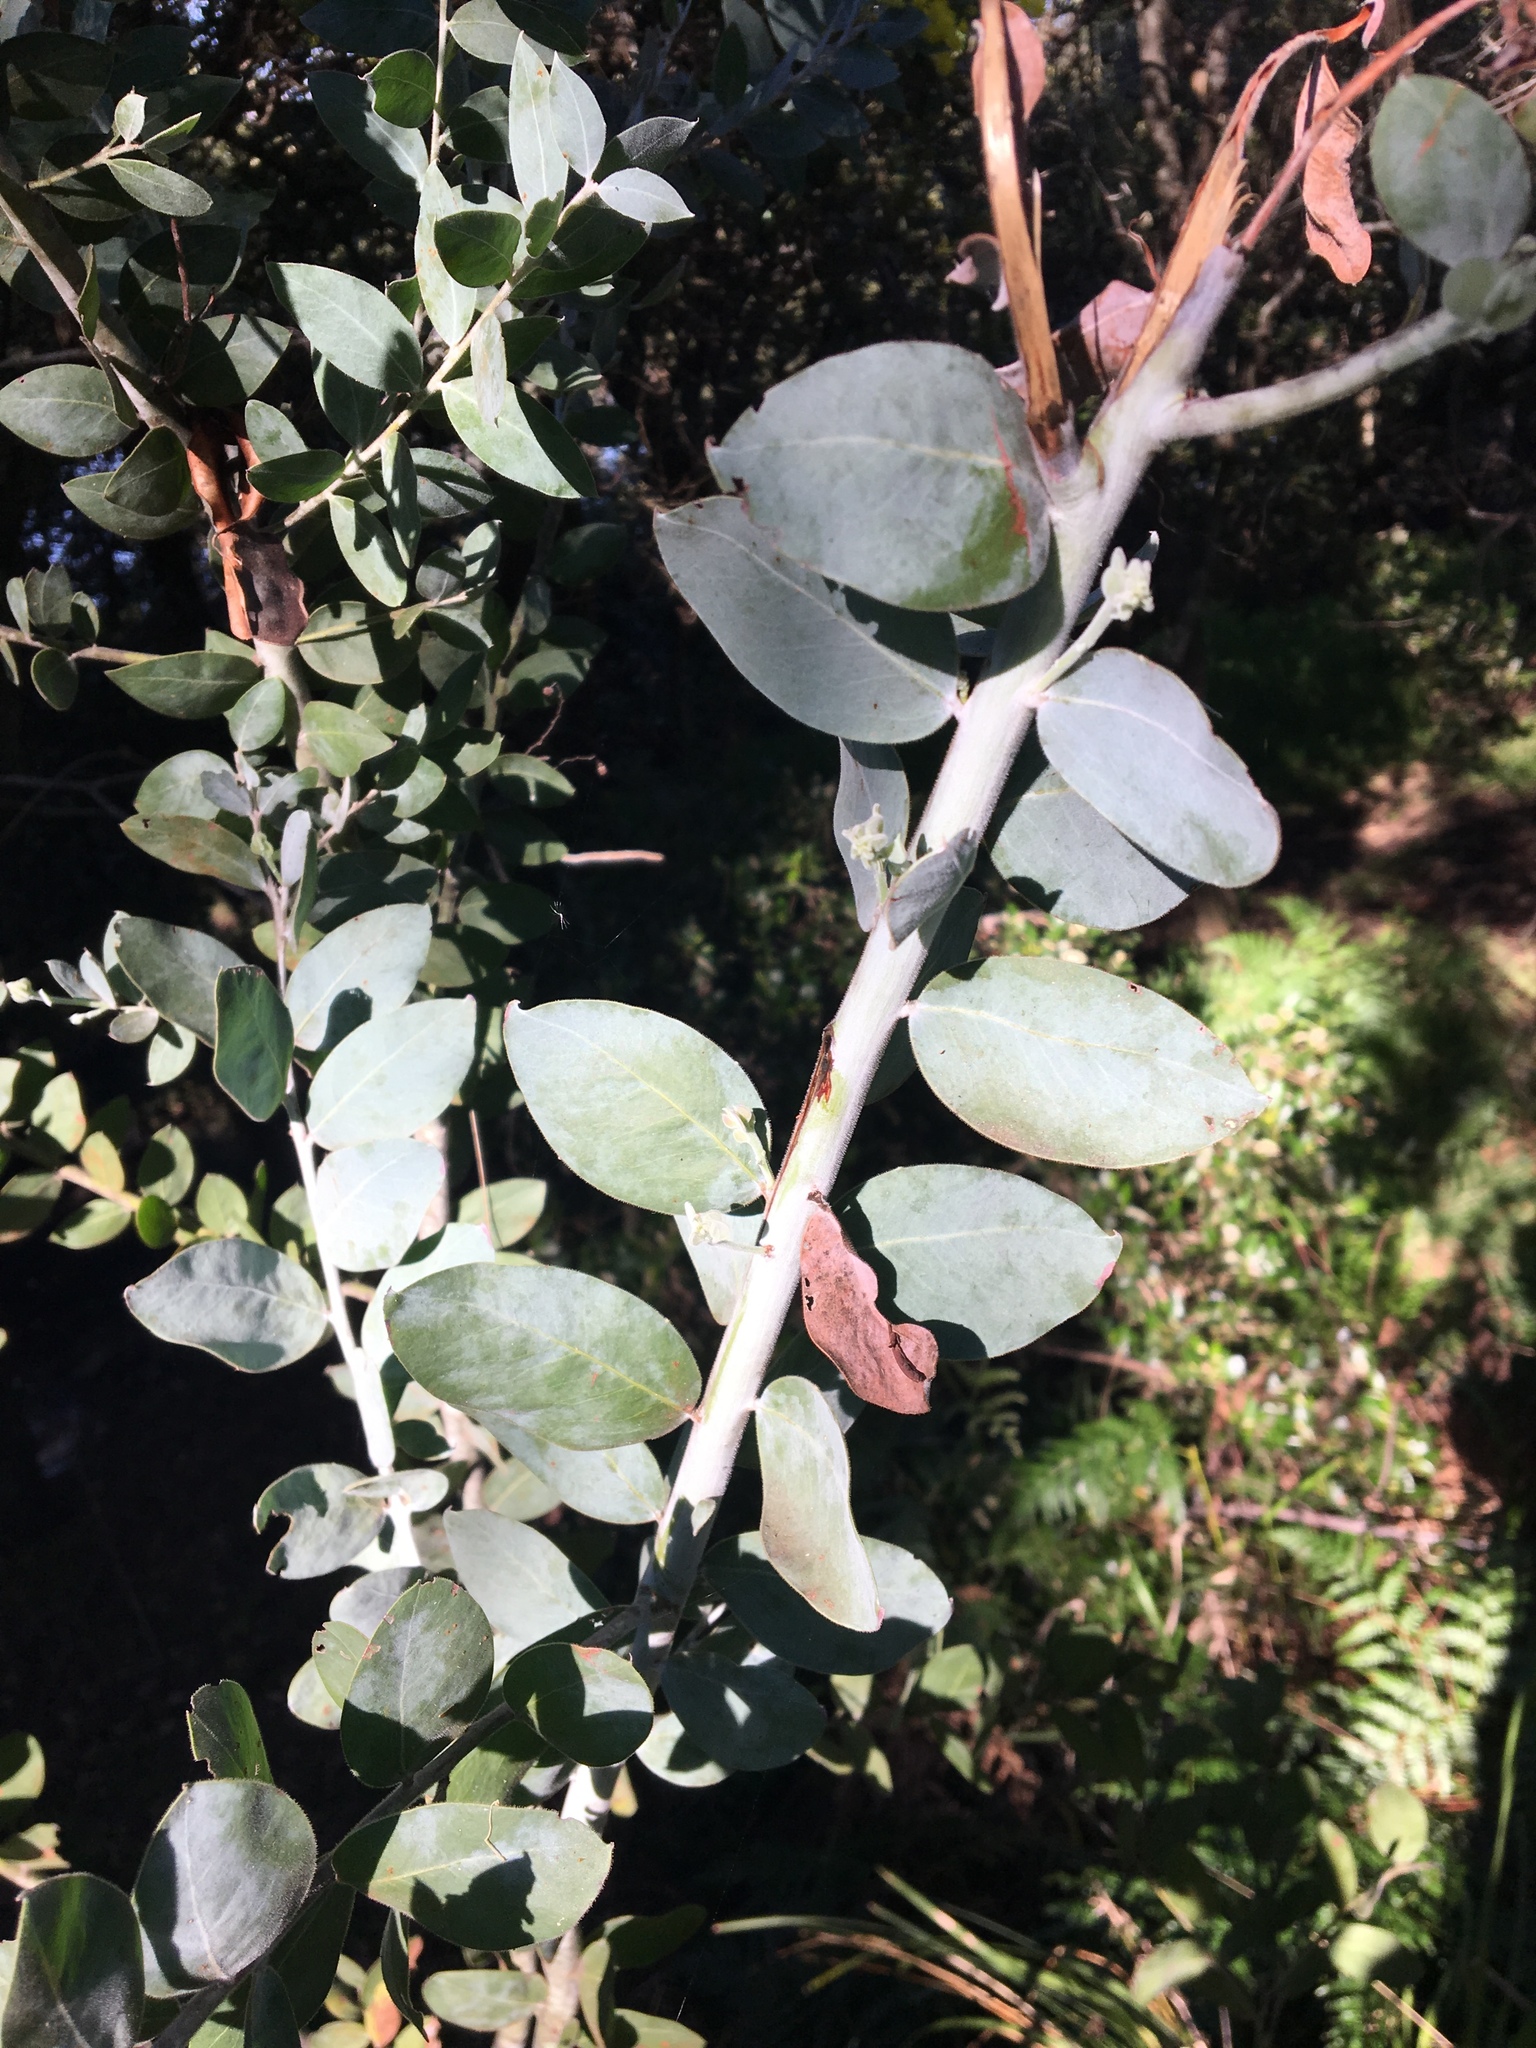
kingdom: Plantae
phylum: Tracheophyta
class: Magnoliopsida
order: Fabales
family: Fabaceae
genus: Acacia
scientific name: Acacia podalyriifolia
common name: Pearl wattle
